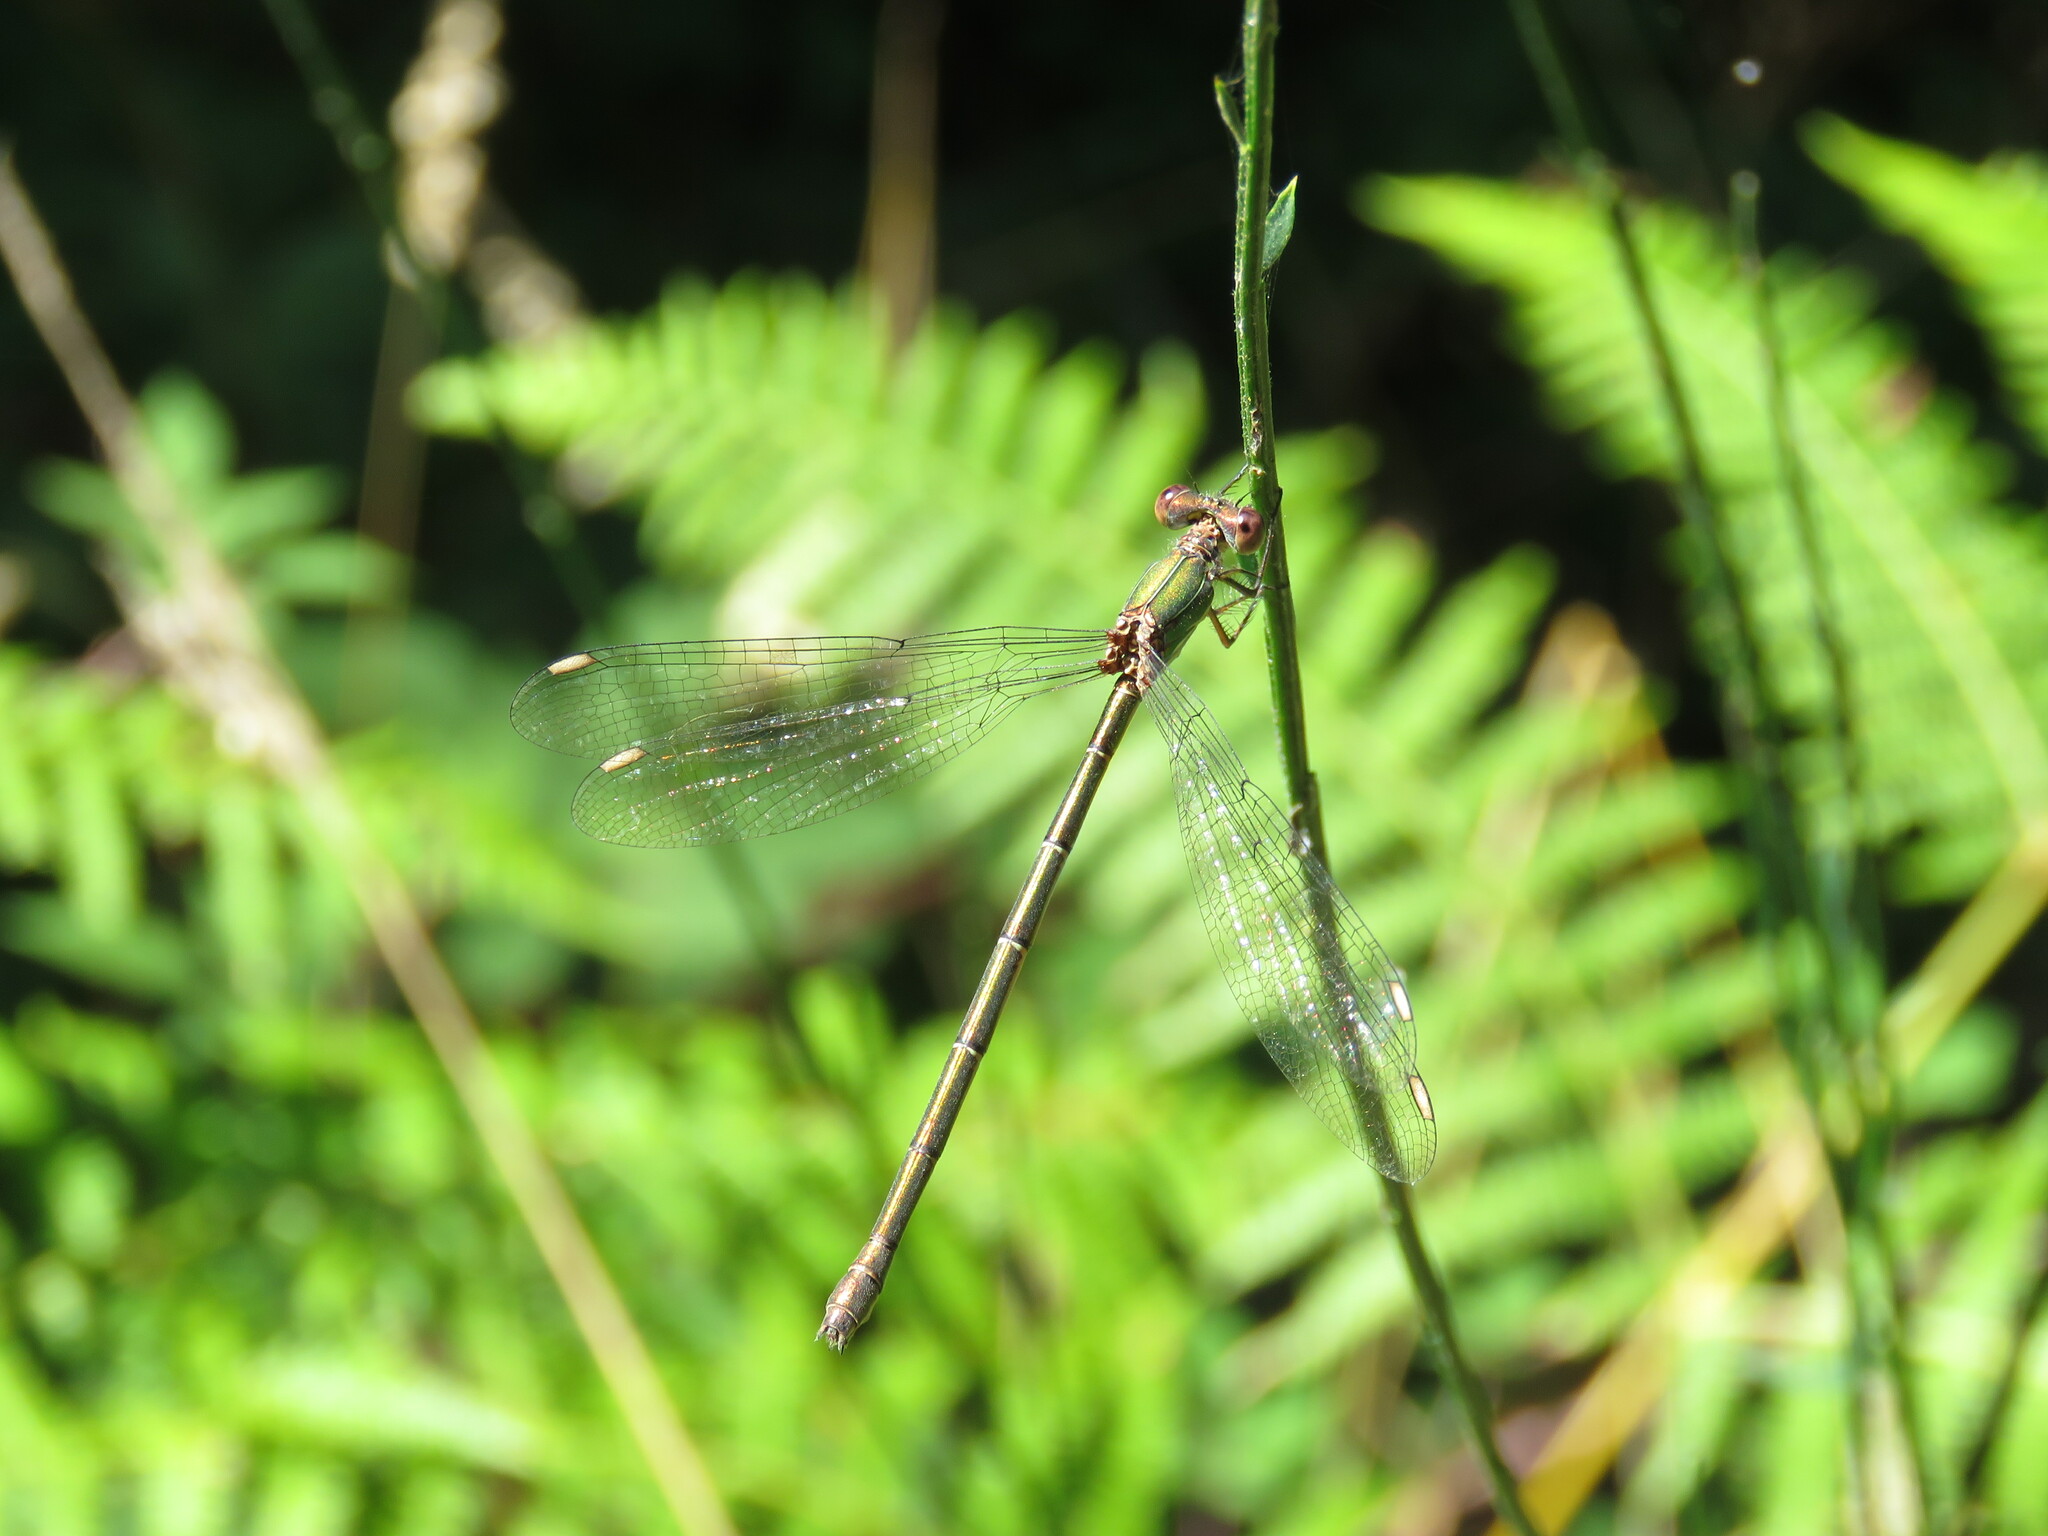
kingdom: Animalia
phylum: Arthropoda
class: Insecta
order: Odonata
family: Lestidae
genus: Chalcolestes
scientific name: Chalcolestes viridis
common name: Green emerald damselfly
